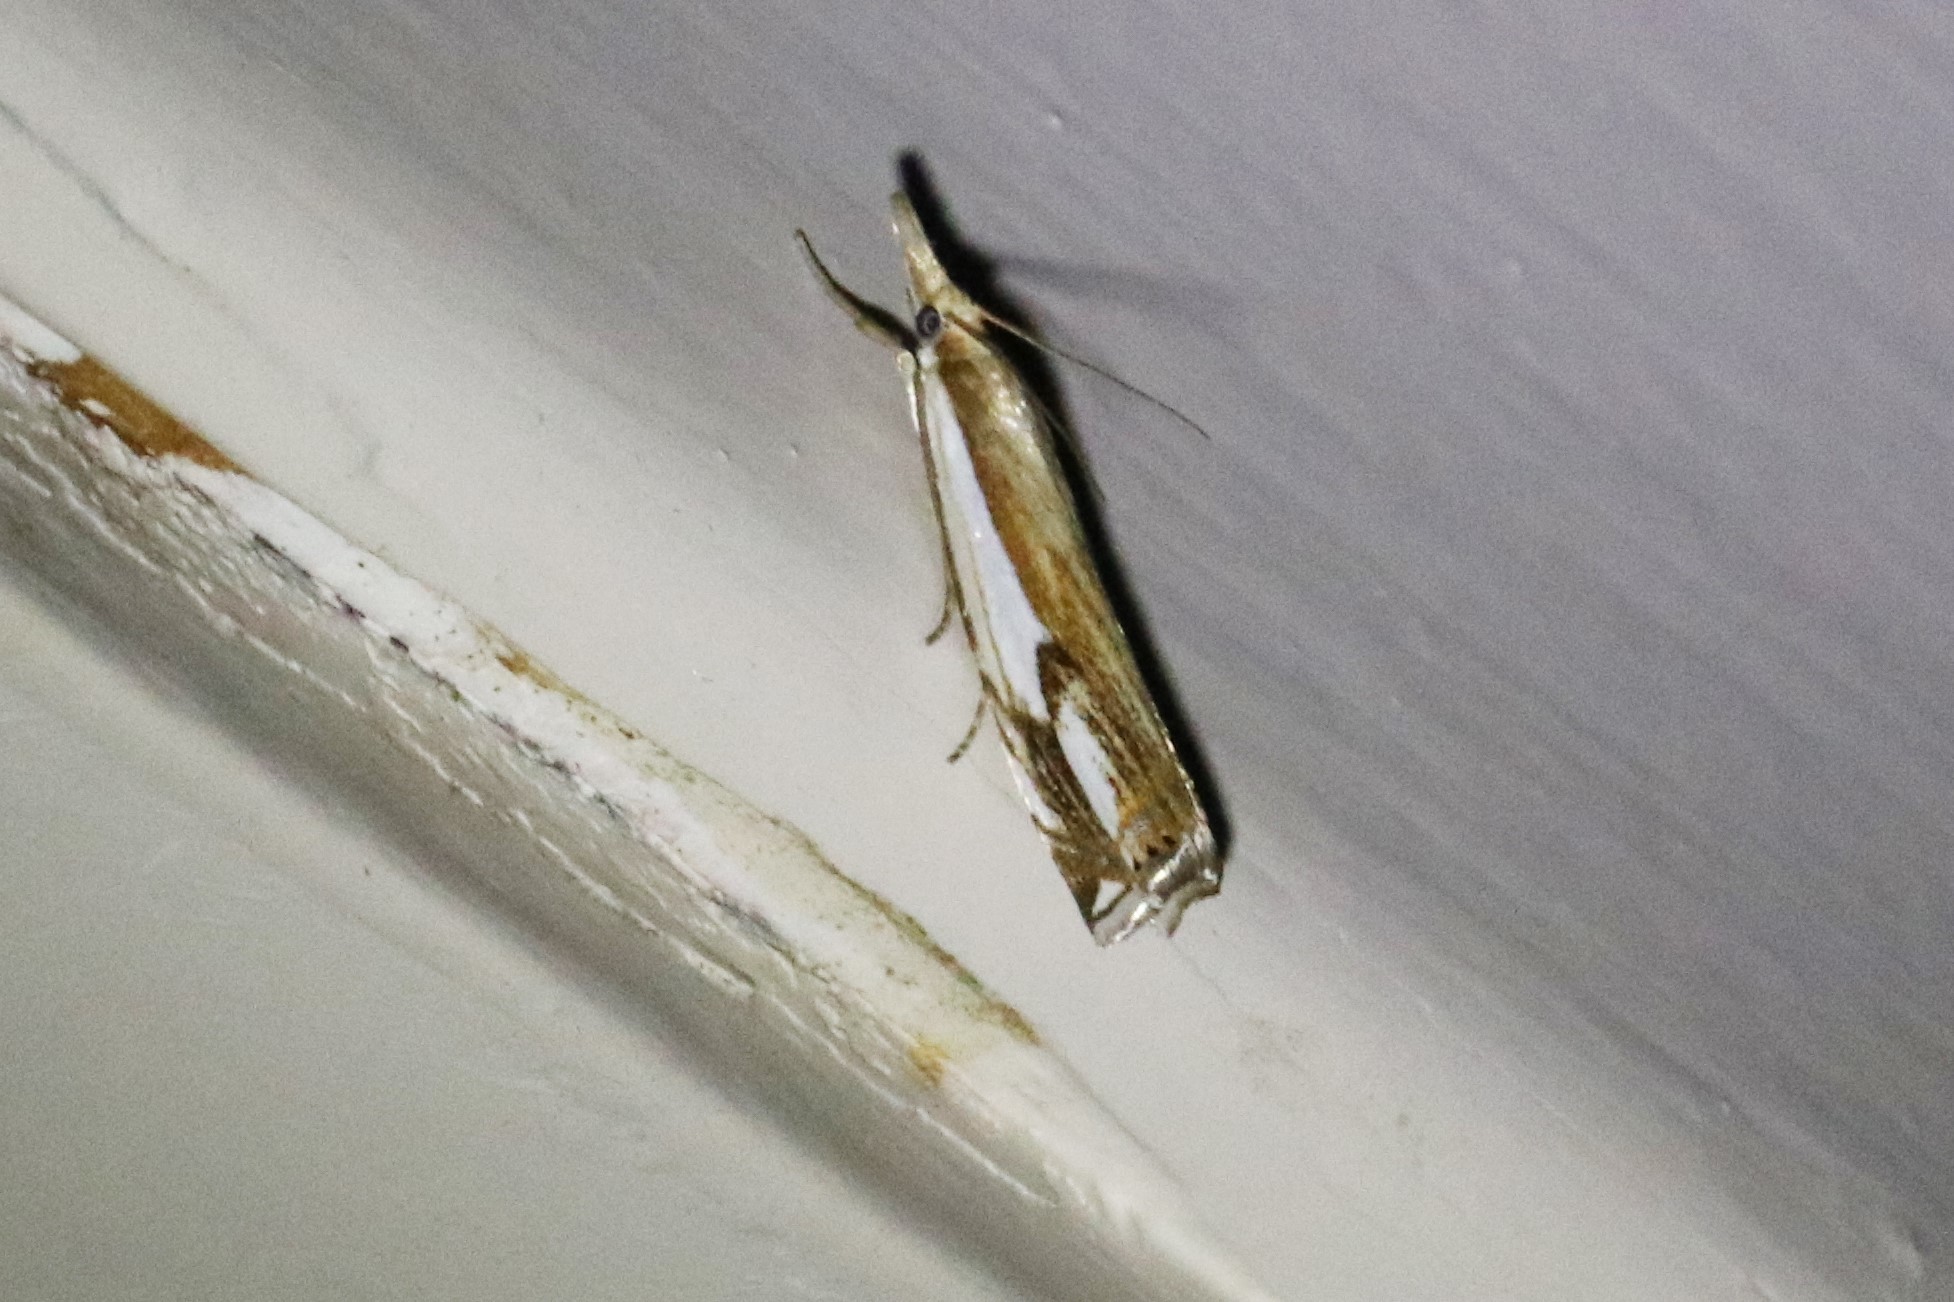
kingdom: Animalia
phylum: Arthropoda
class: Insecta
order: Lepidoptera
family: Crambidae
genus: Crambus
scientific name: Crambus agitatellus
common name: Double-banded grass-veneer
